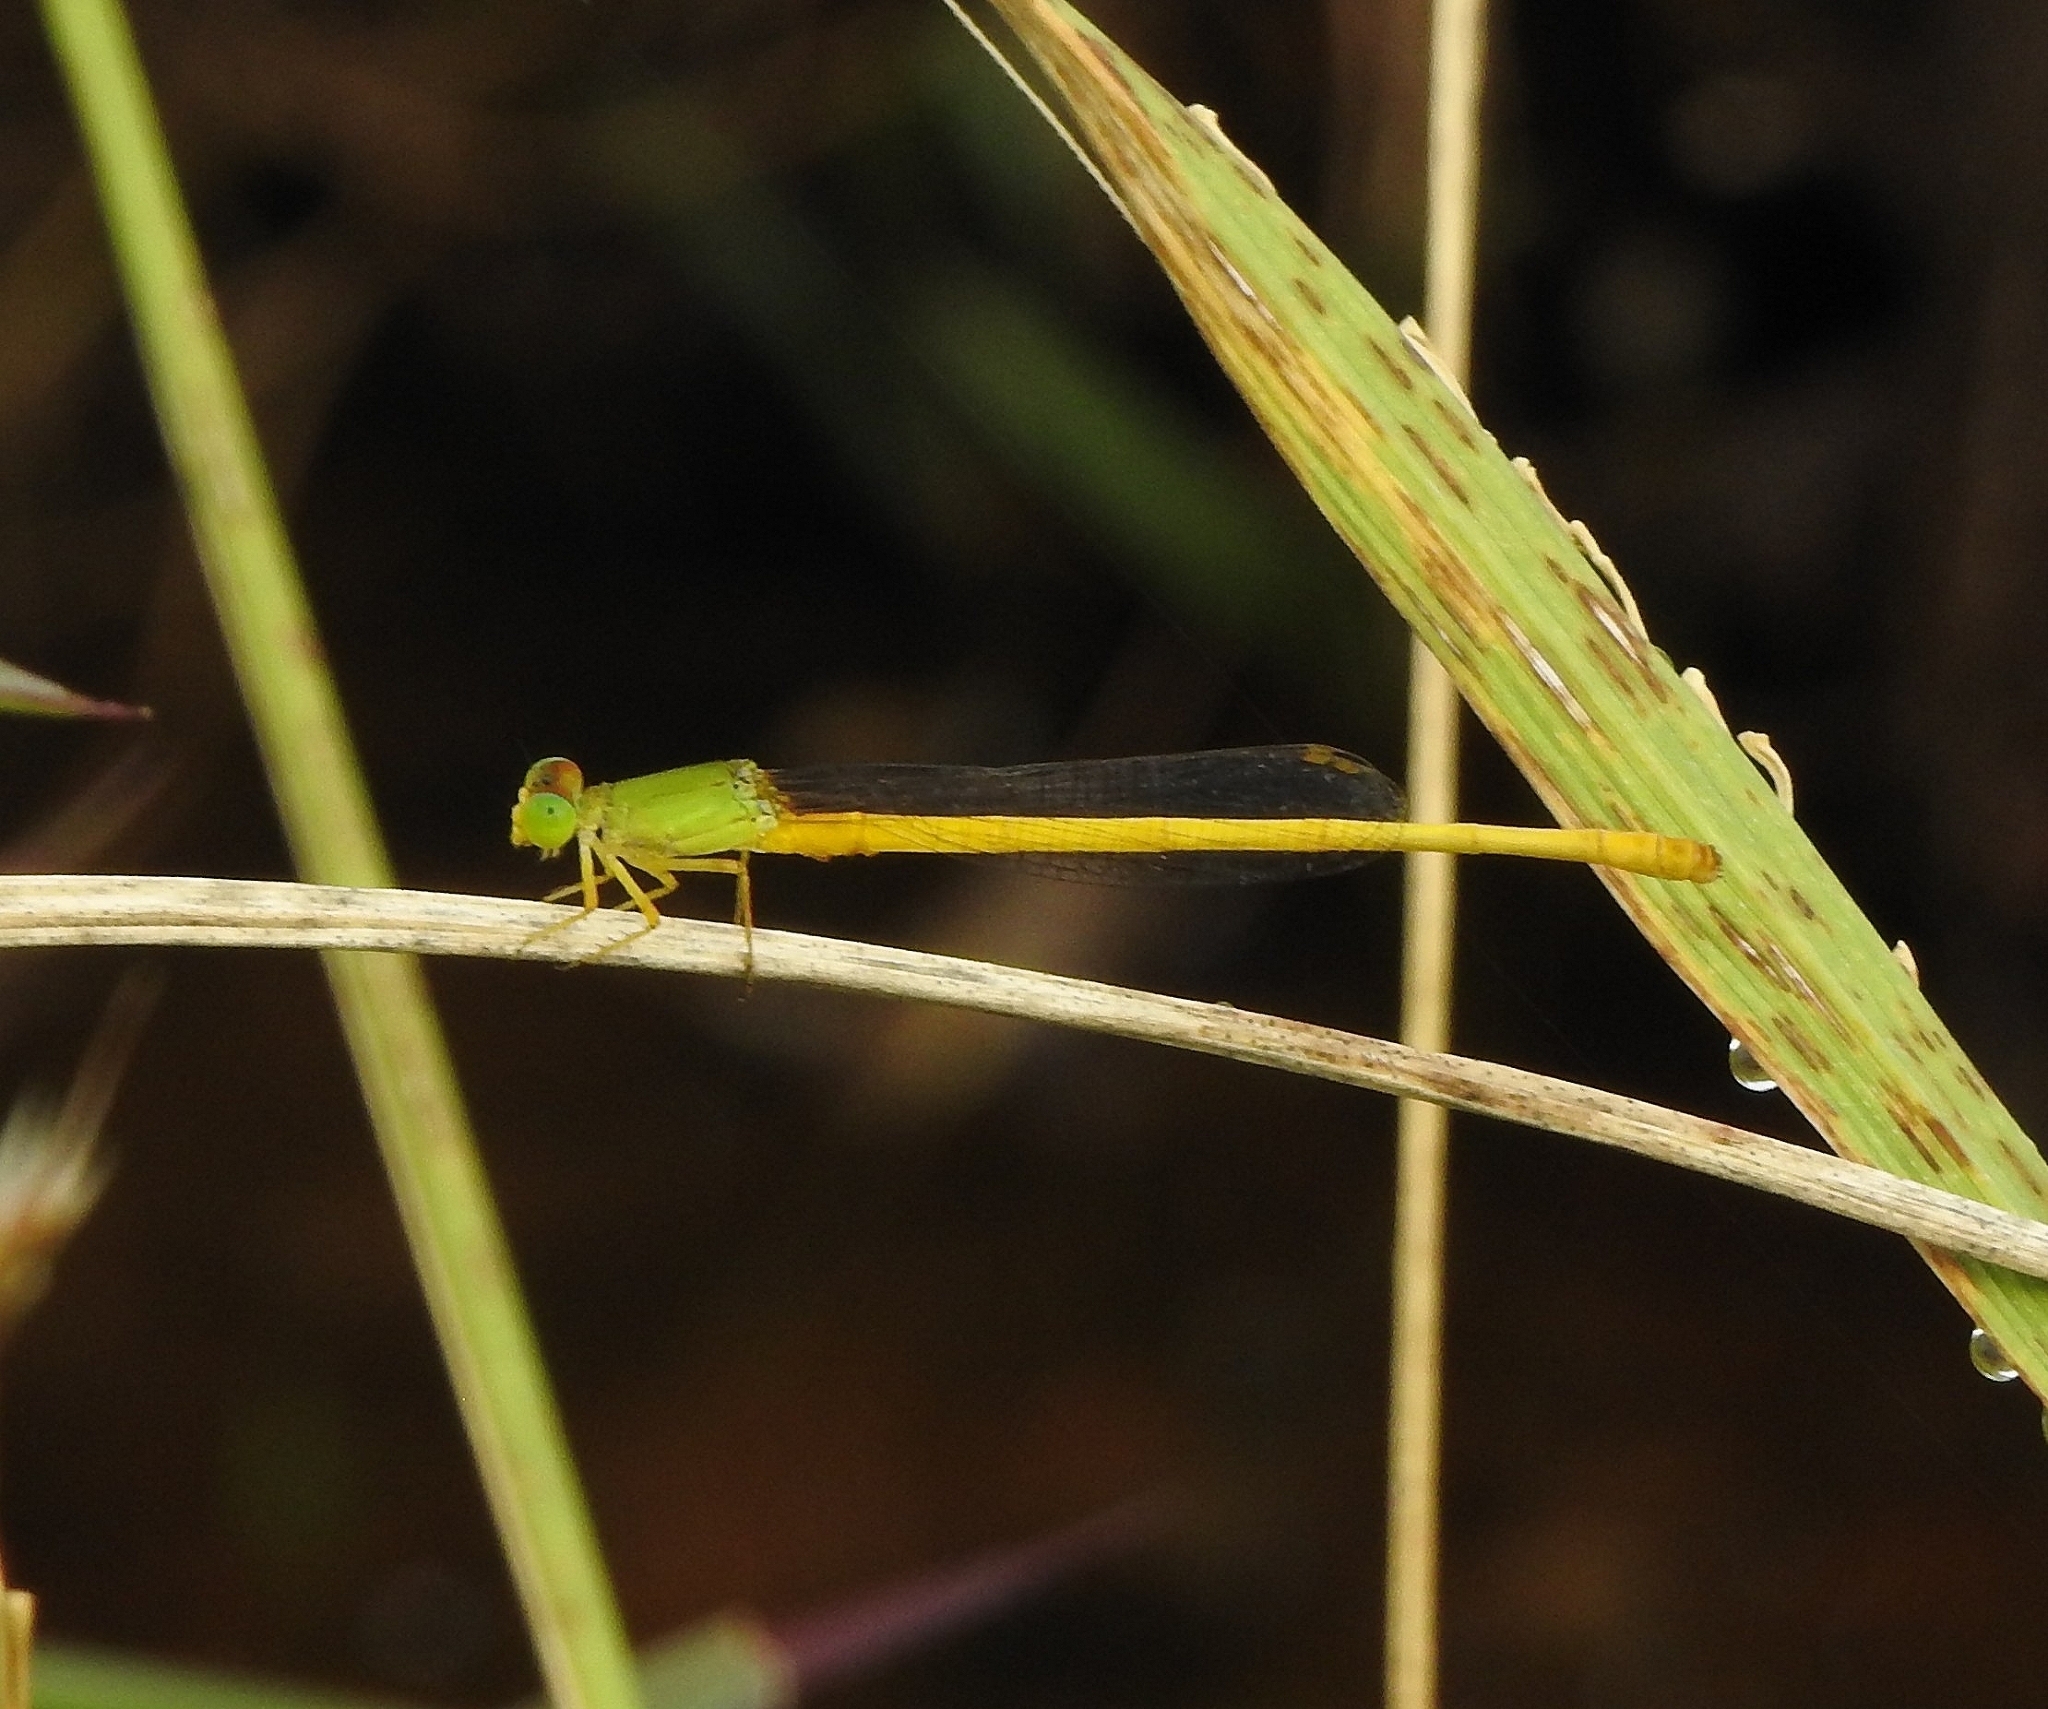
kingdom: Animalia
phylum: Arthropoda
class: Insecta
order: Odonata
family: Coenagrionidae
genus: Ceriagrion
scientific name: Ceriagrion coromandelianum
